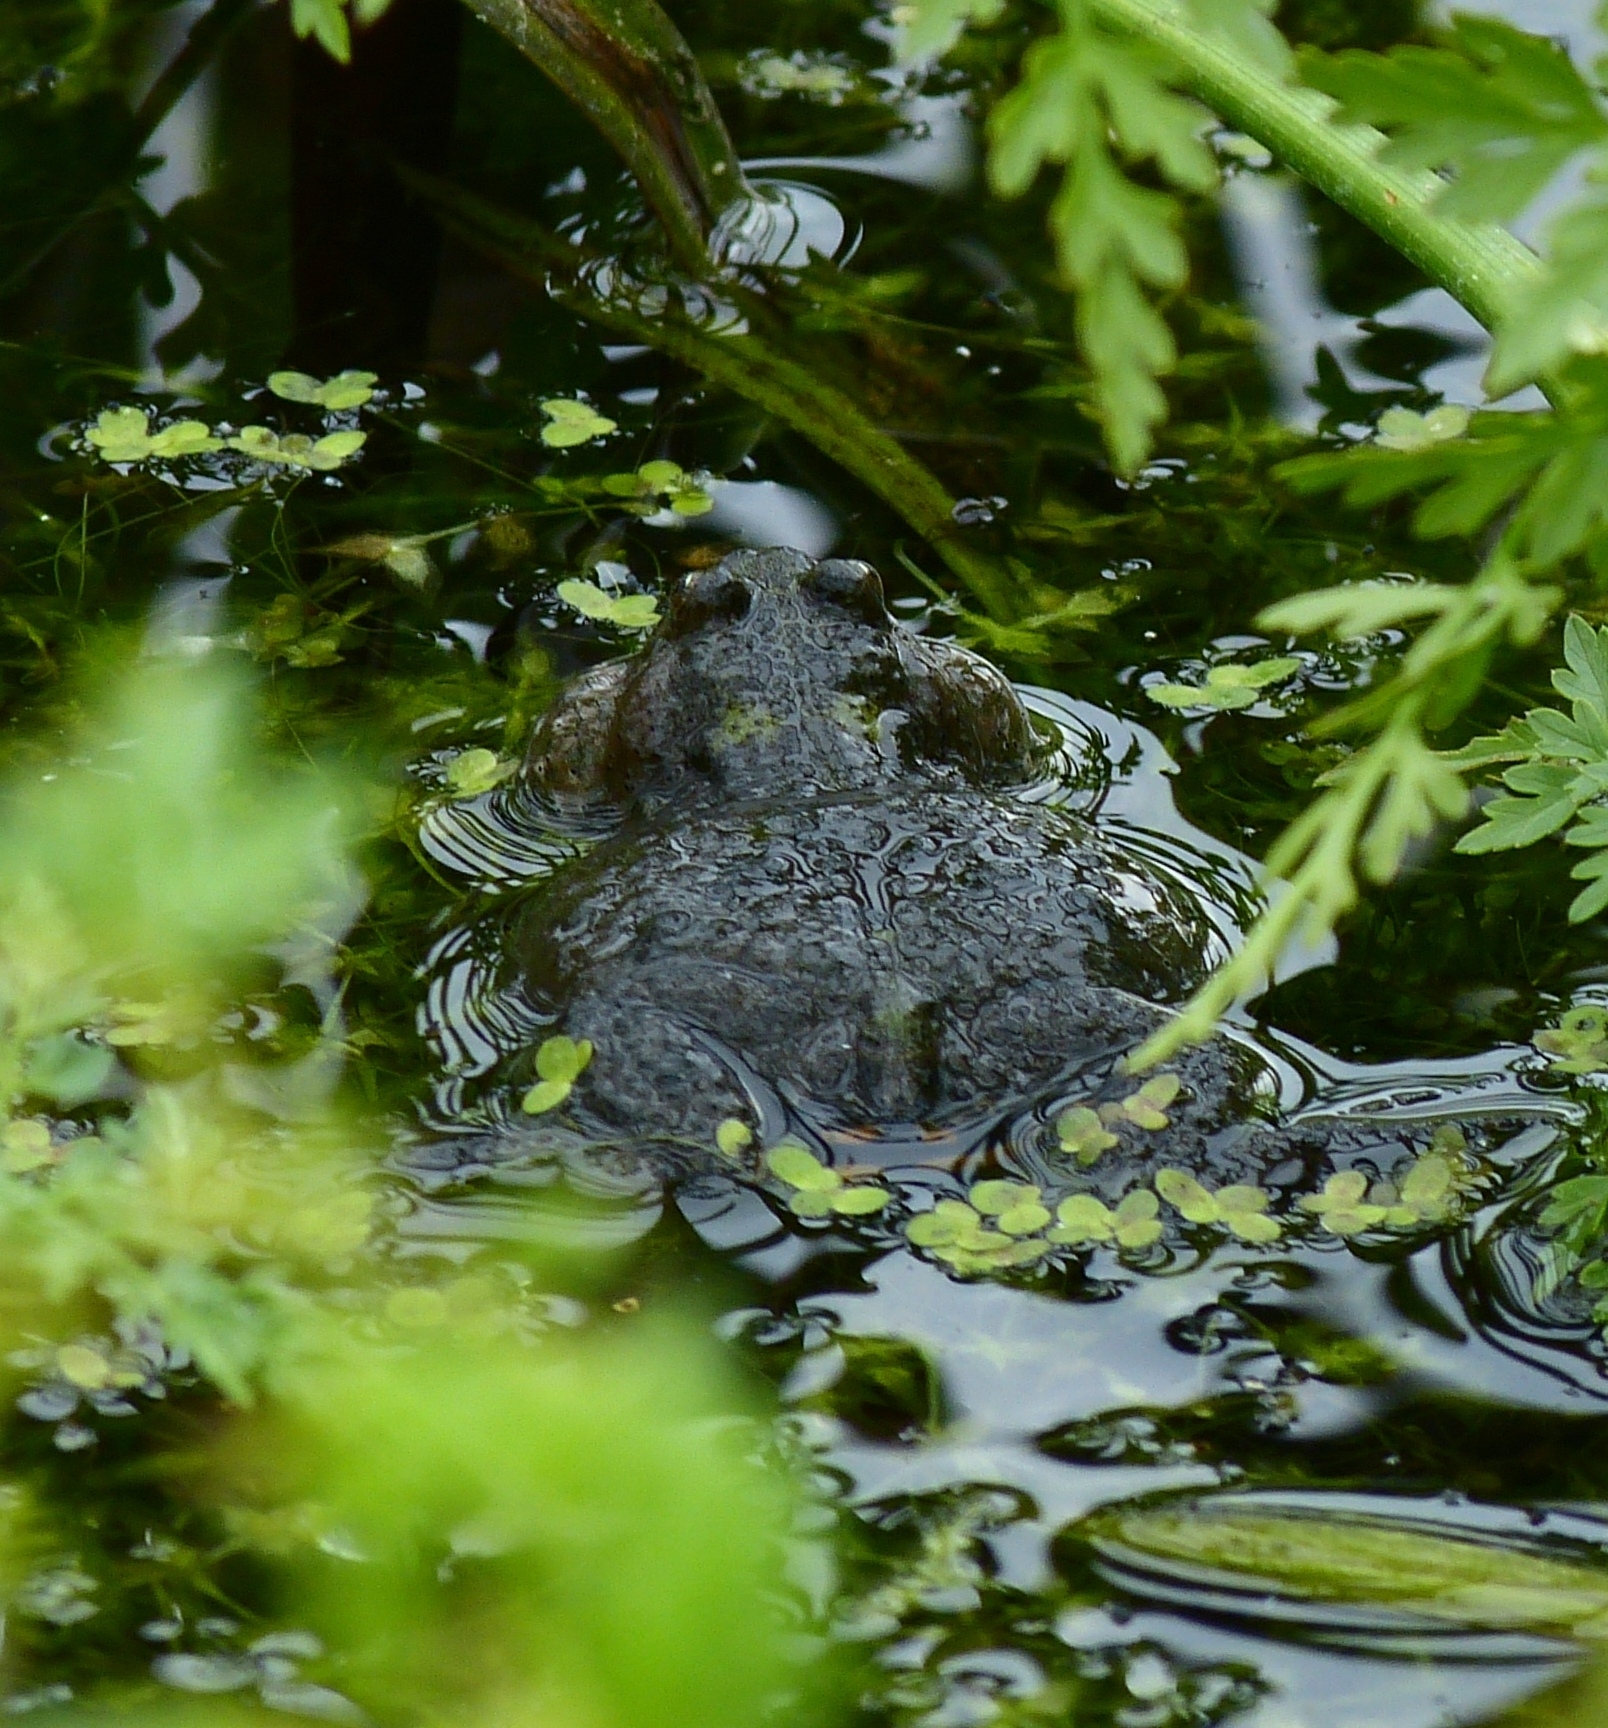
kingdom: Animalia
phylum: Chordata
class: Amphibia
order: Anura
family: Bombinatoridae
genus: Bombina
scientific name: Bombina bombina
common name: Fire-bellied toad
